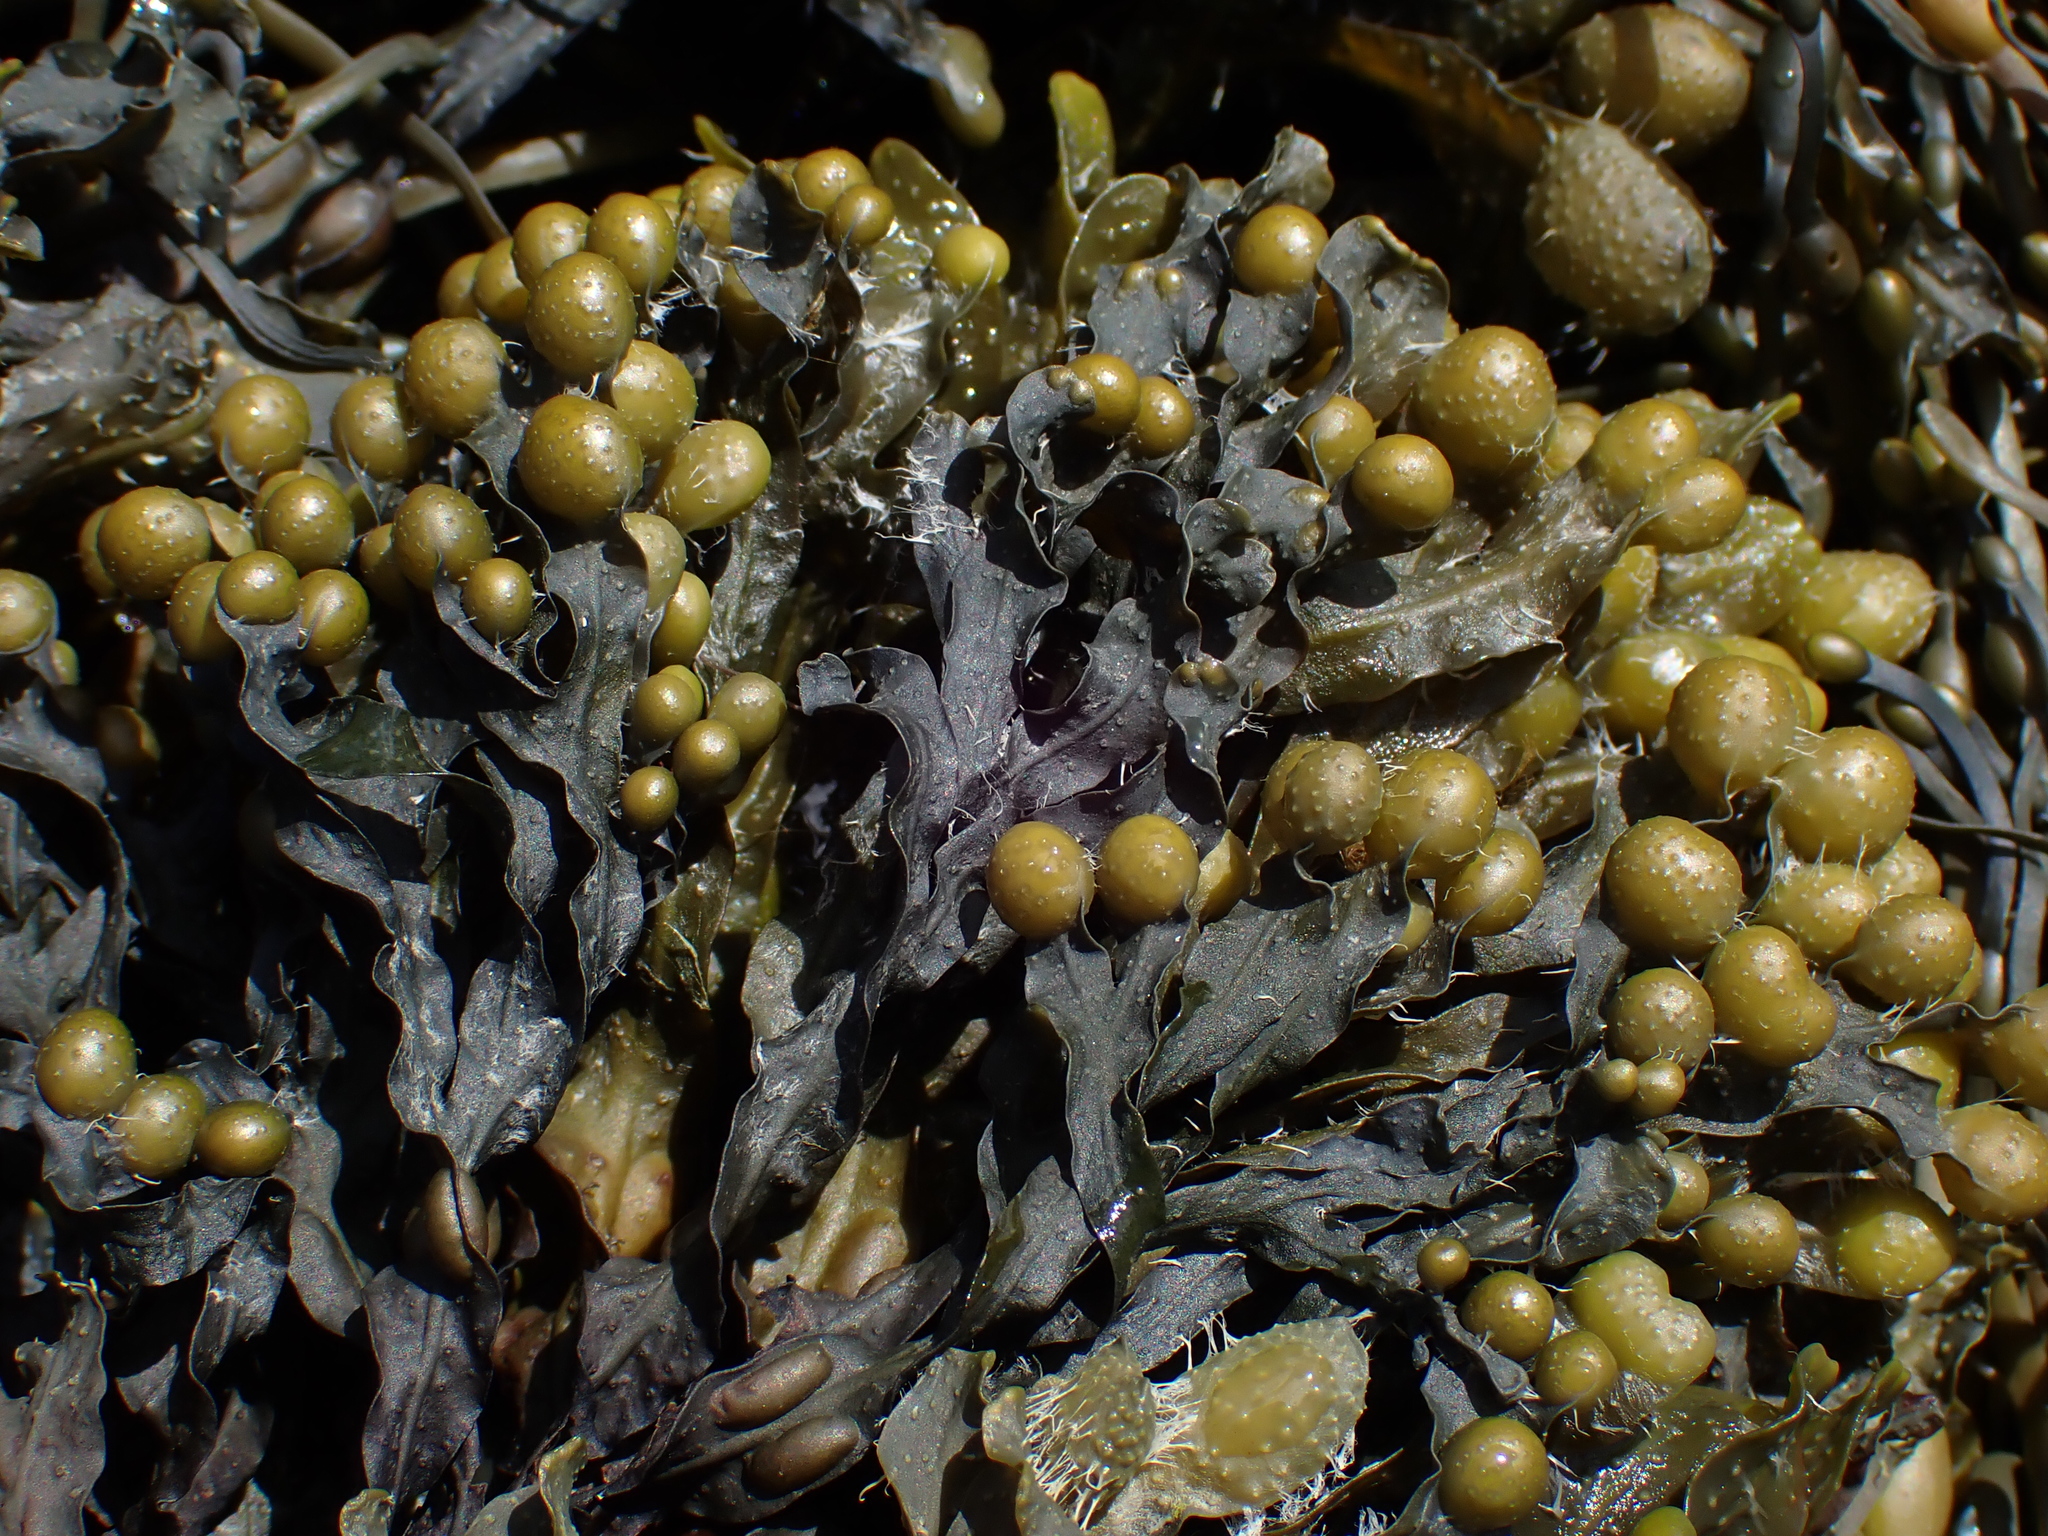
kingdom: Chromista
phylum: Ochrophyta
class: Phaeophyceae
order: Fucales
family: Fucaceae
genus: Fucus
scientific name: Fucus vesiculosus
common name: Bladder wrack
